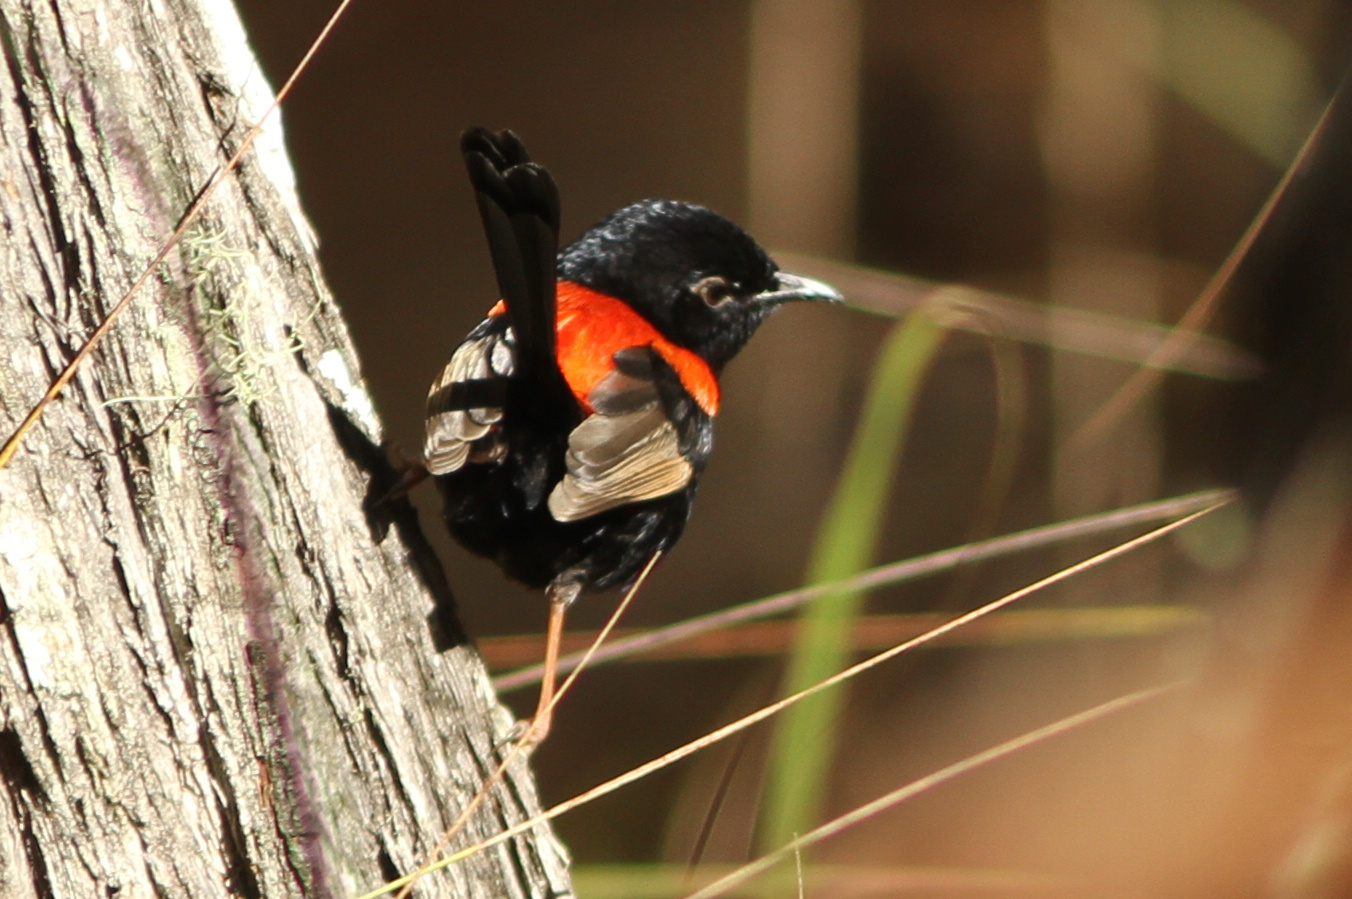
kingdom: Animalia
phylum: Chordata
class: Aves
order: Passeriformes
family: Maluridae
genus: Malurus
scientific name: Malurus melanocephalus
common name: Red-backed fairywren
